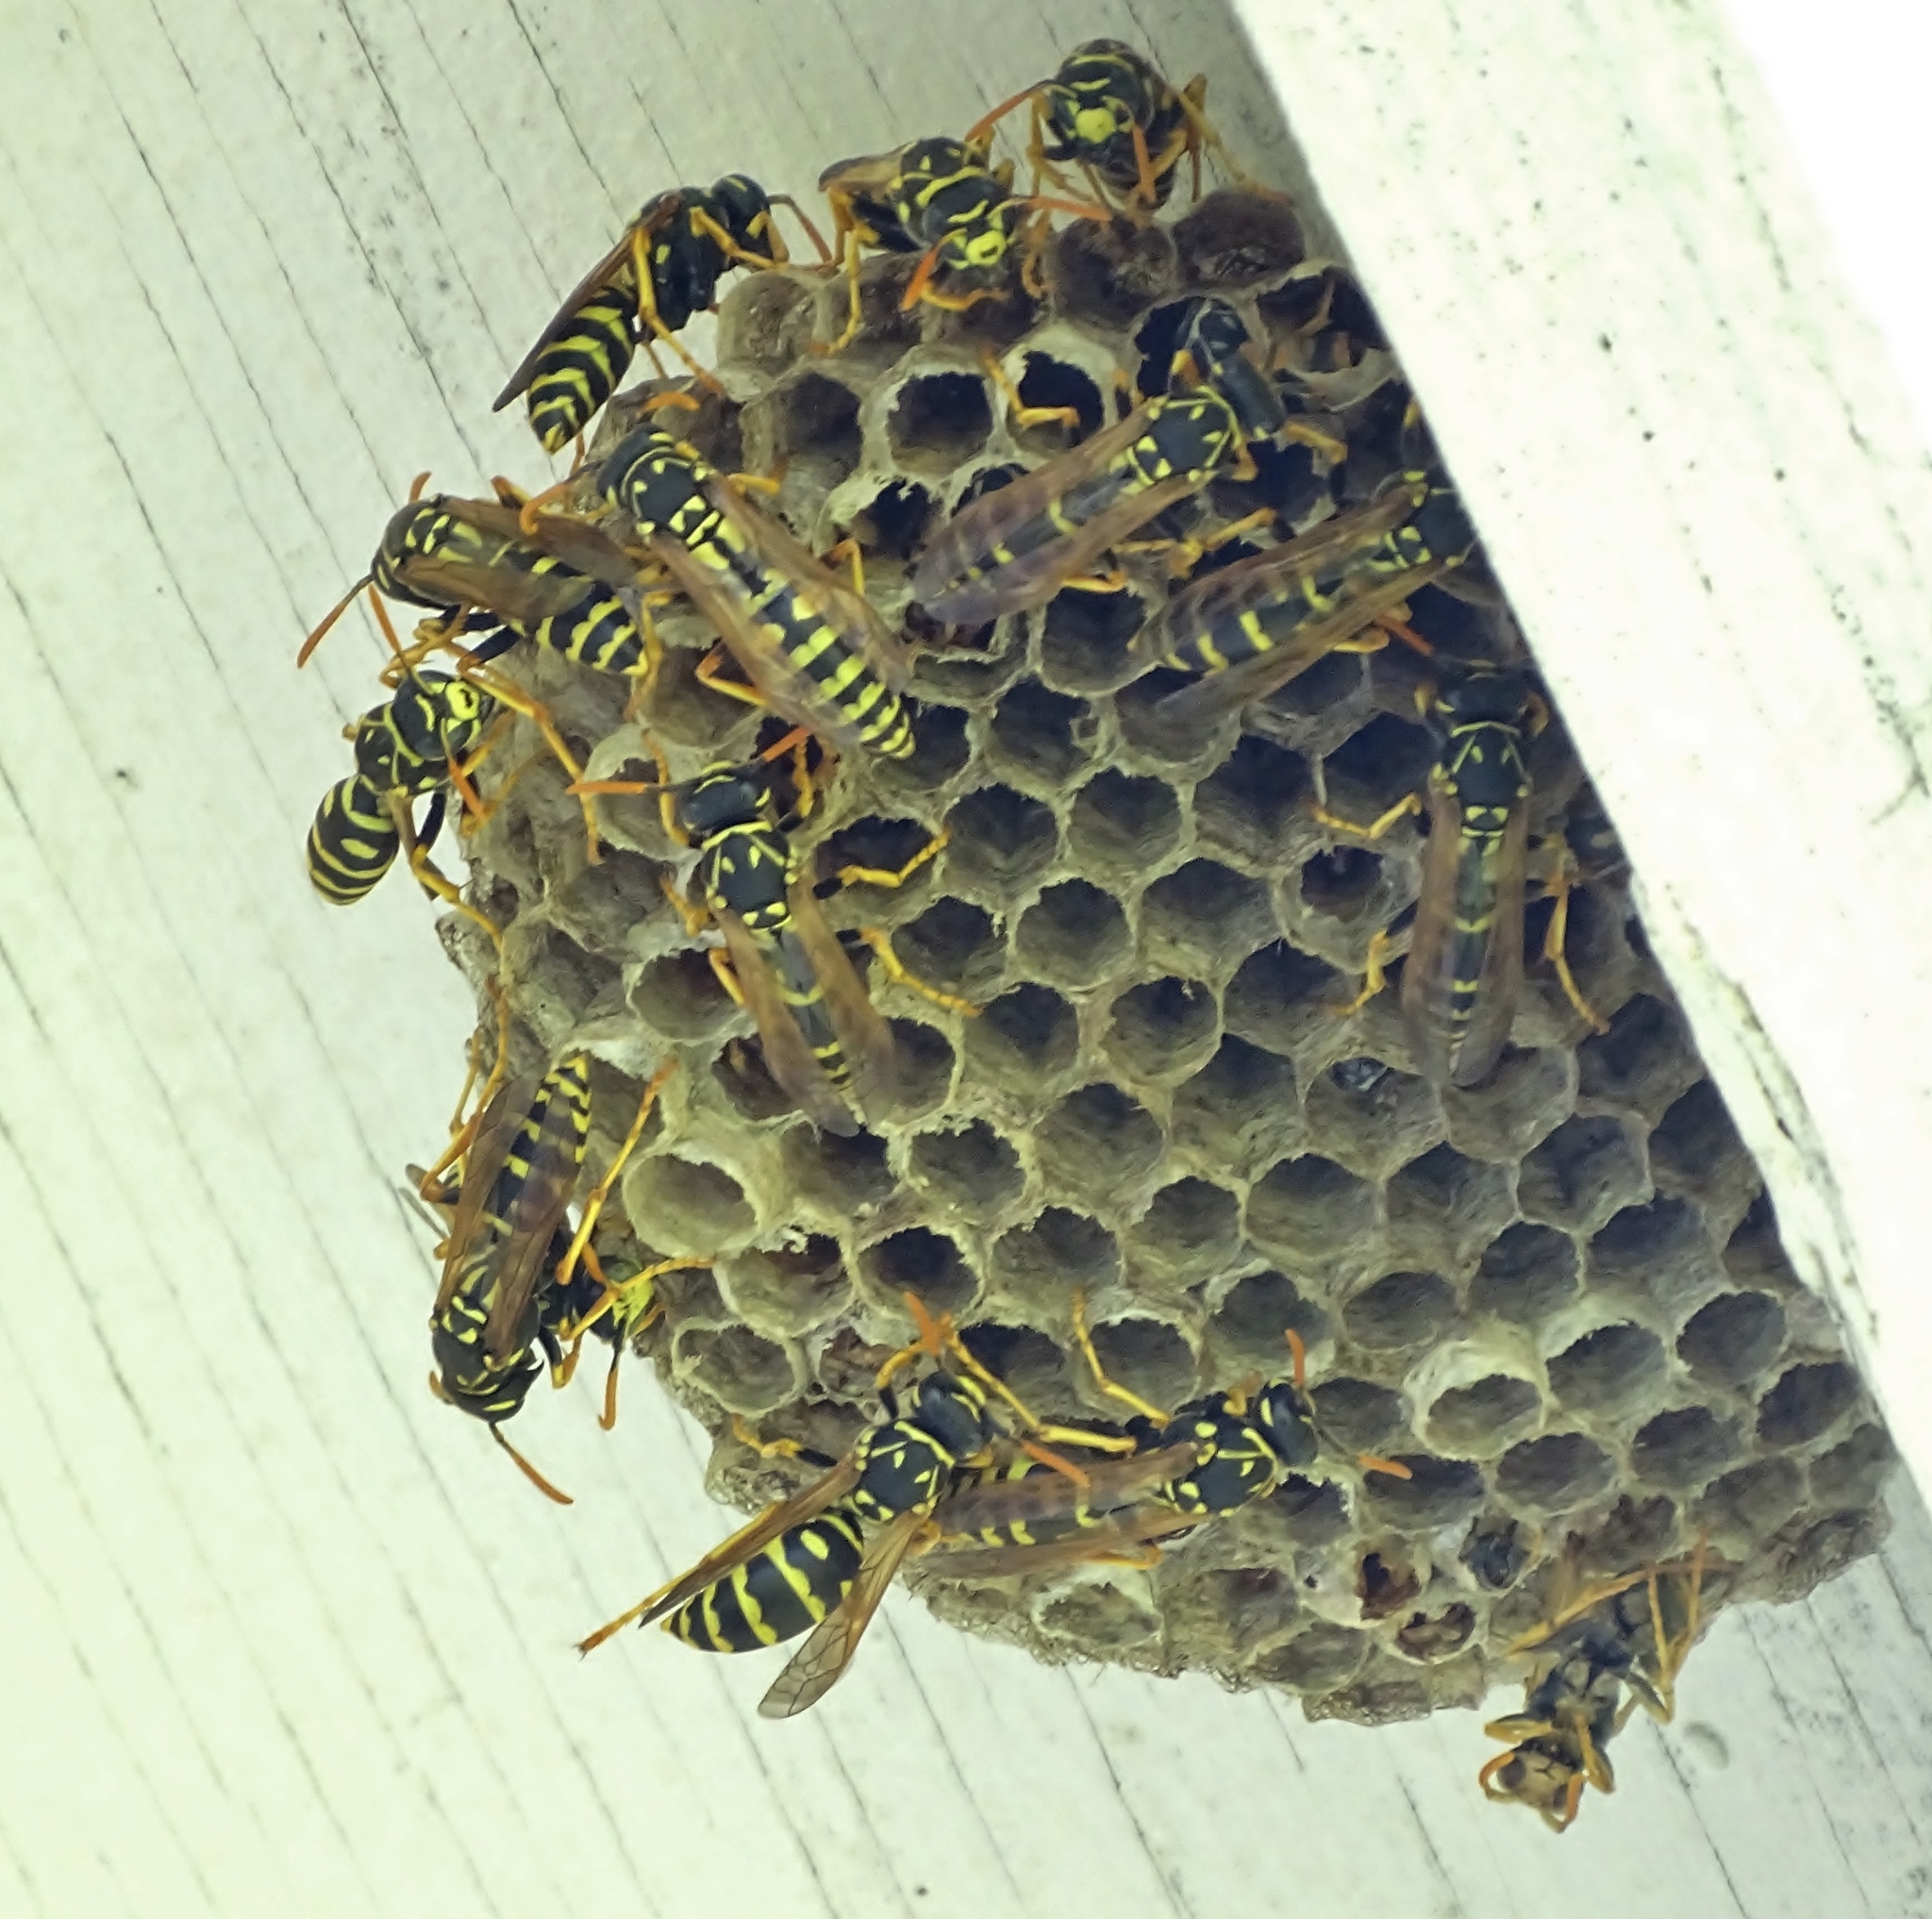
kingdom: Animalia
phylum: Arthropoda
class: Insecta
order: Hymenoptera
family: Eumenidae
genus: Polistes
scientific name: Polistes dominula
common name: Paper wasp
